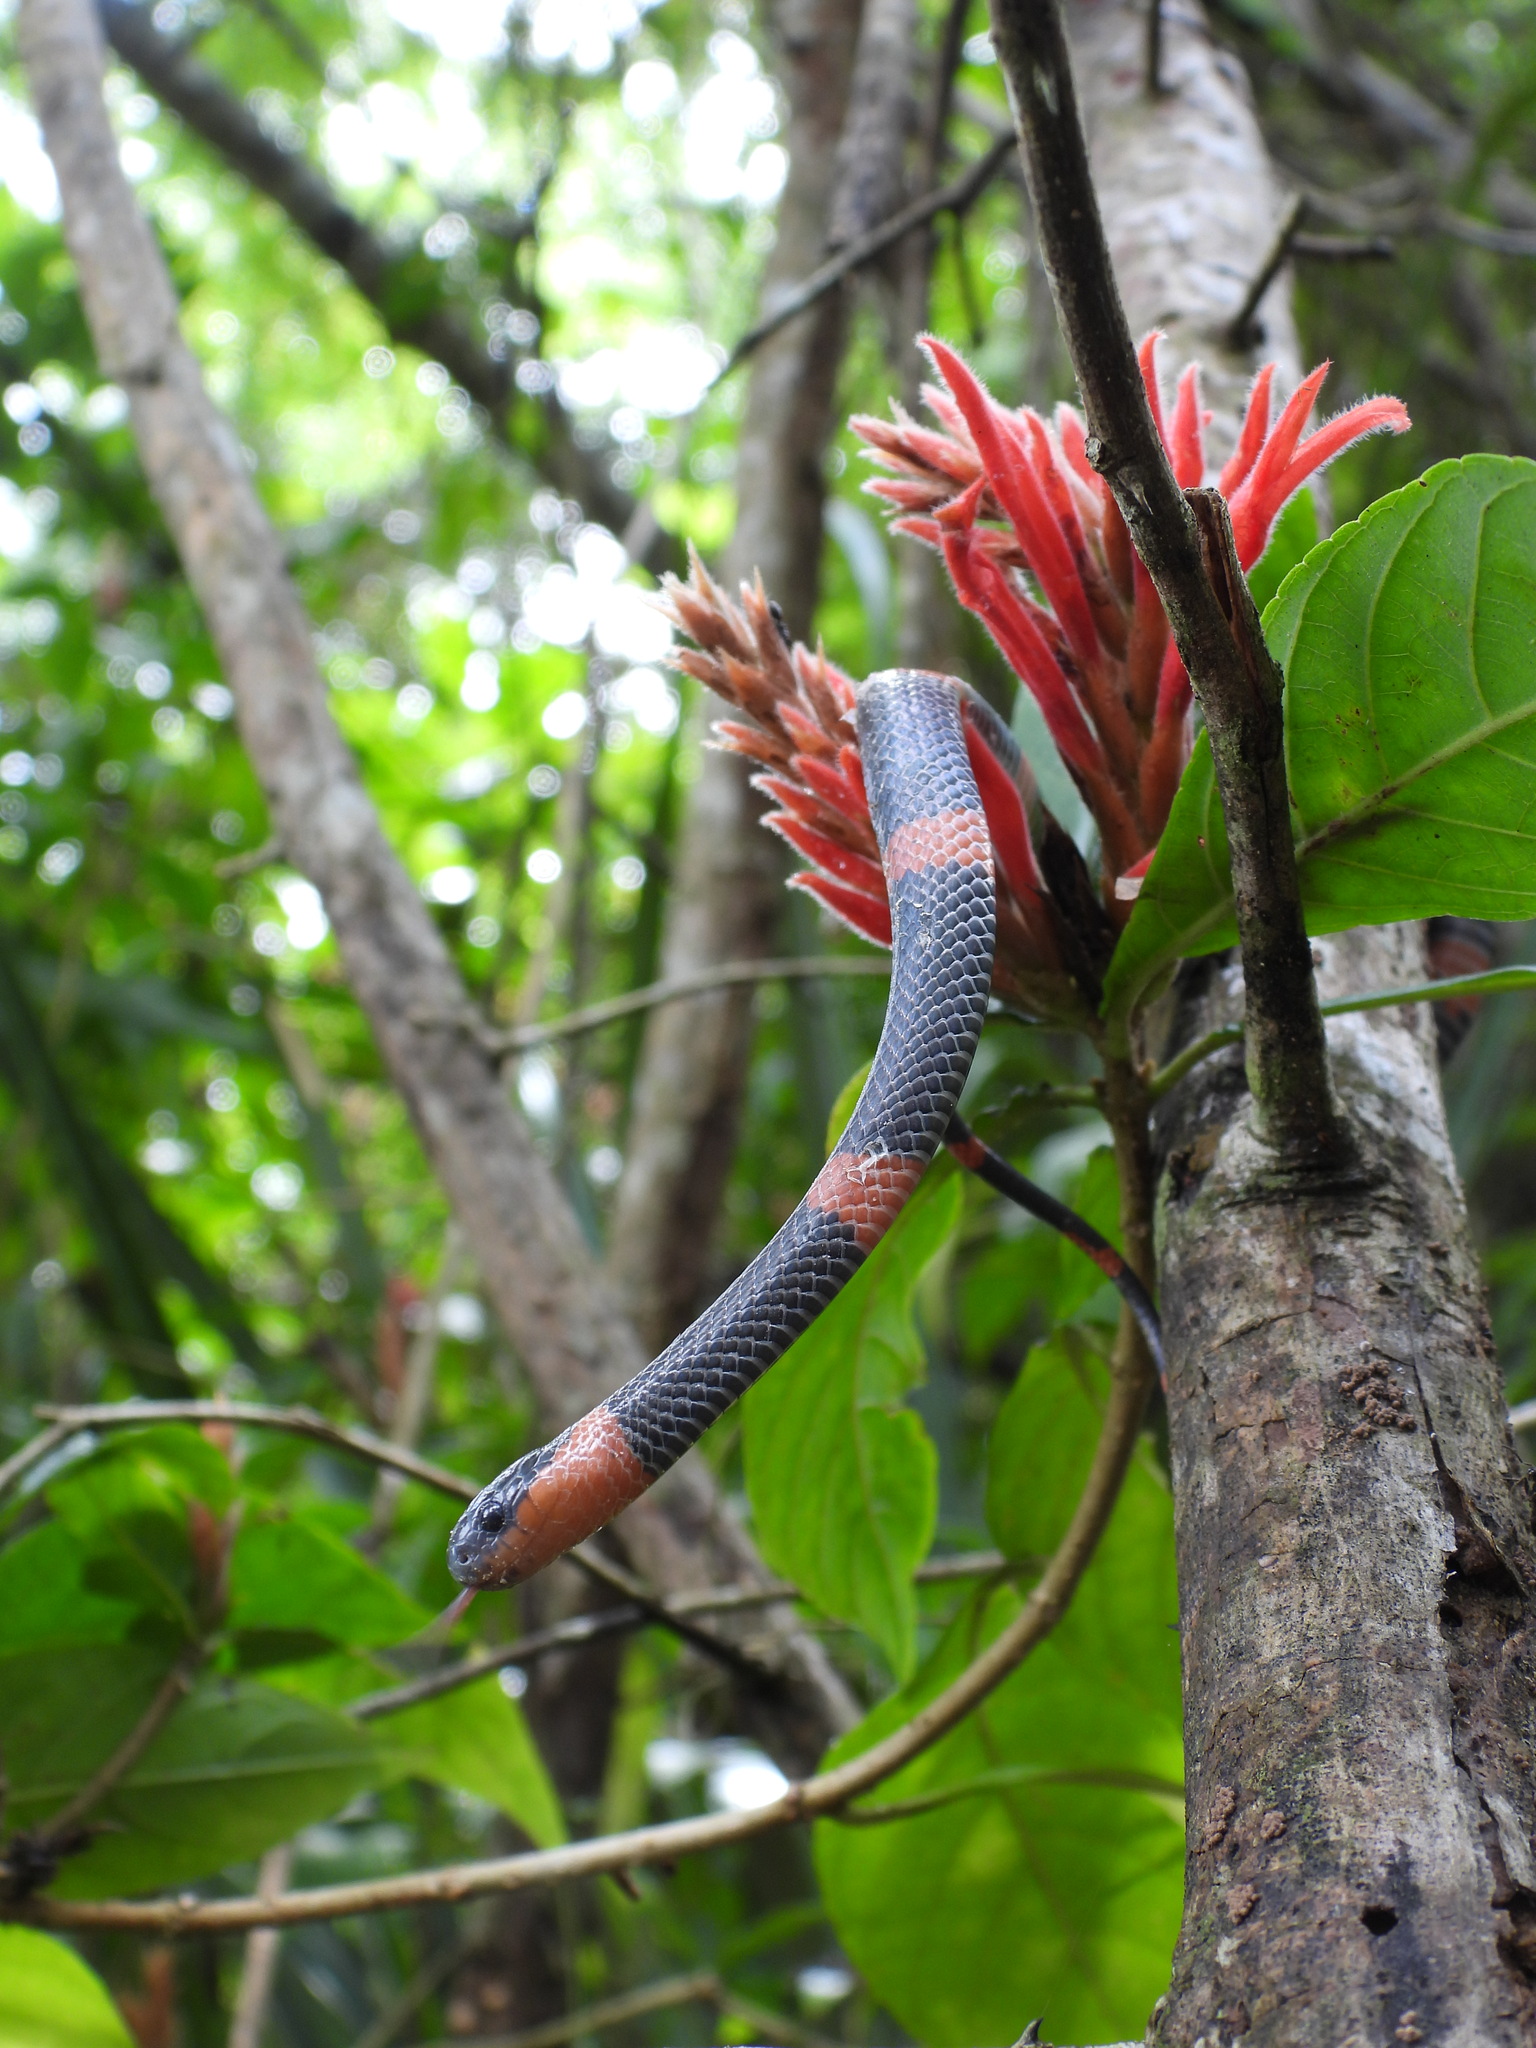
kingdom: Animalia
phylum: Chordata
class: Squamata
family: Colubridae
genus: Geophis
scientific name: Geophis
